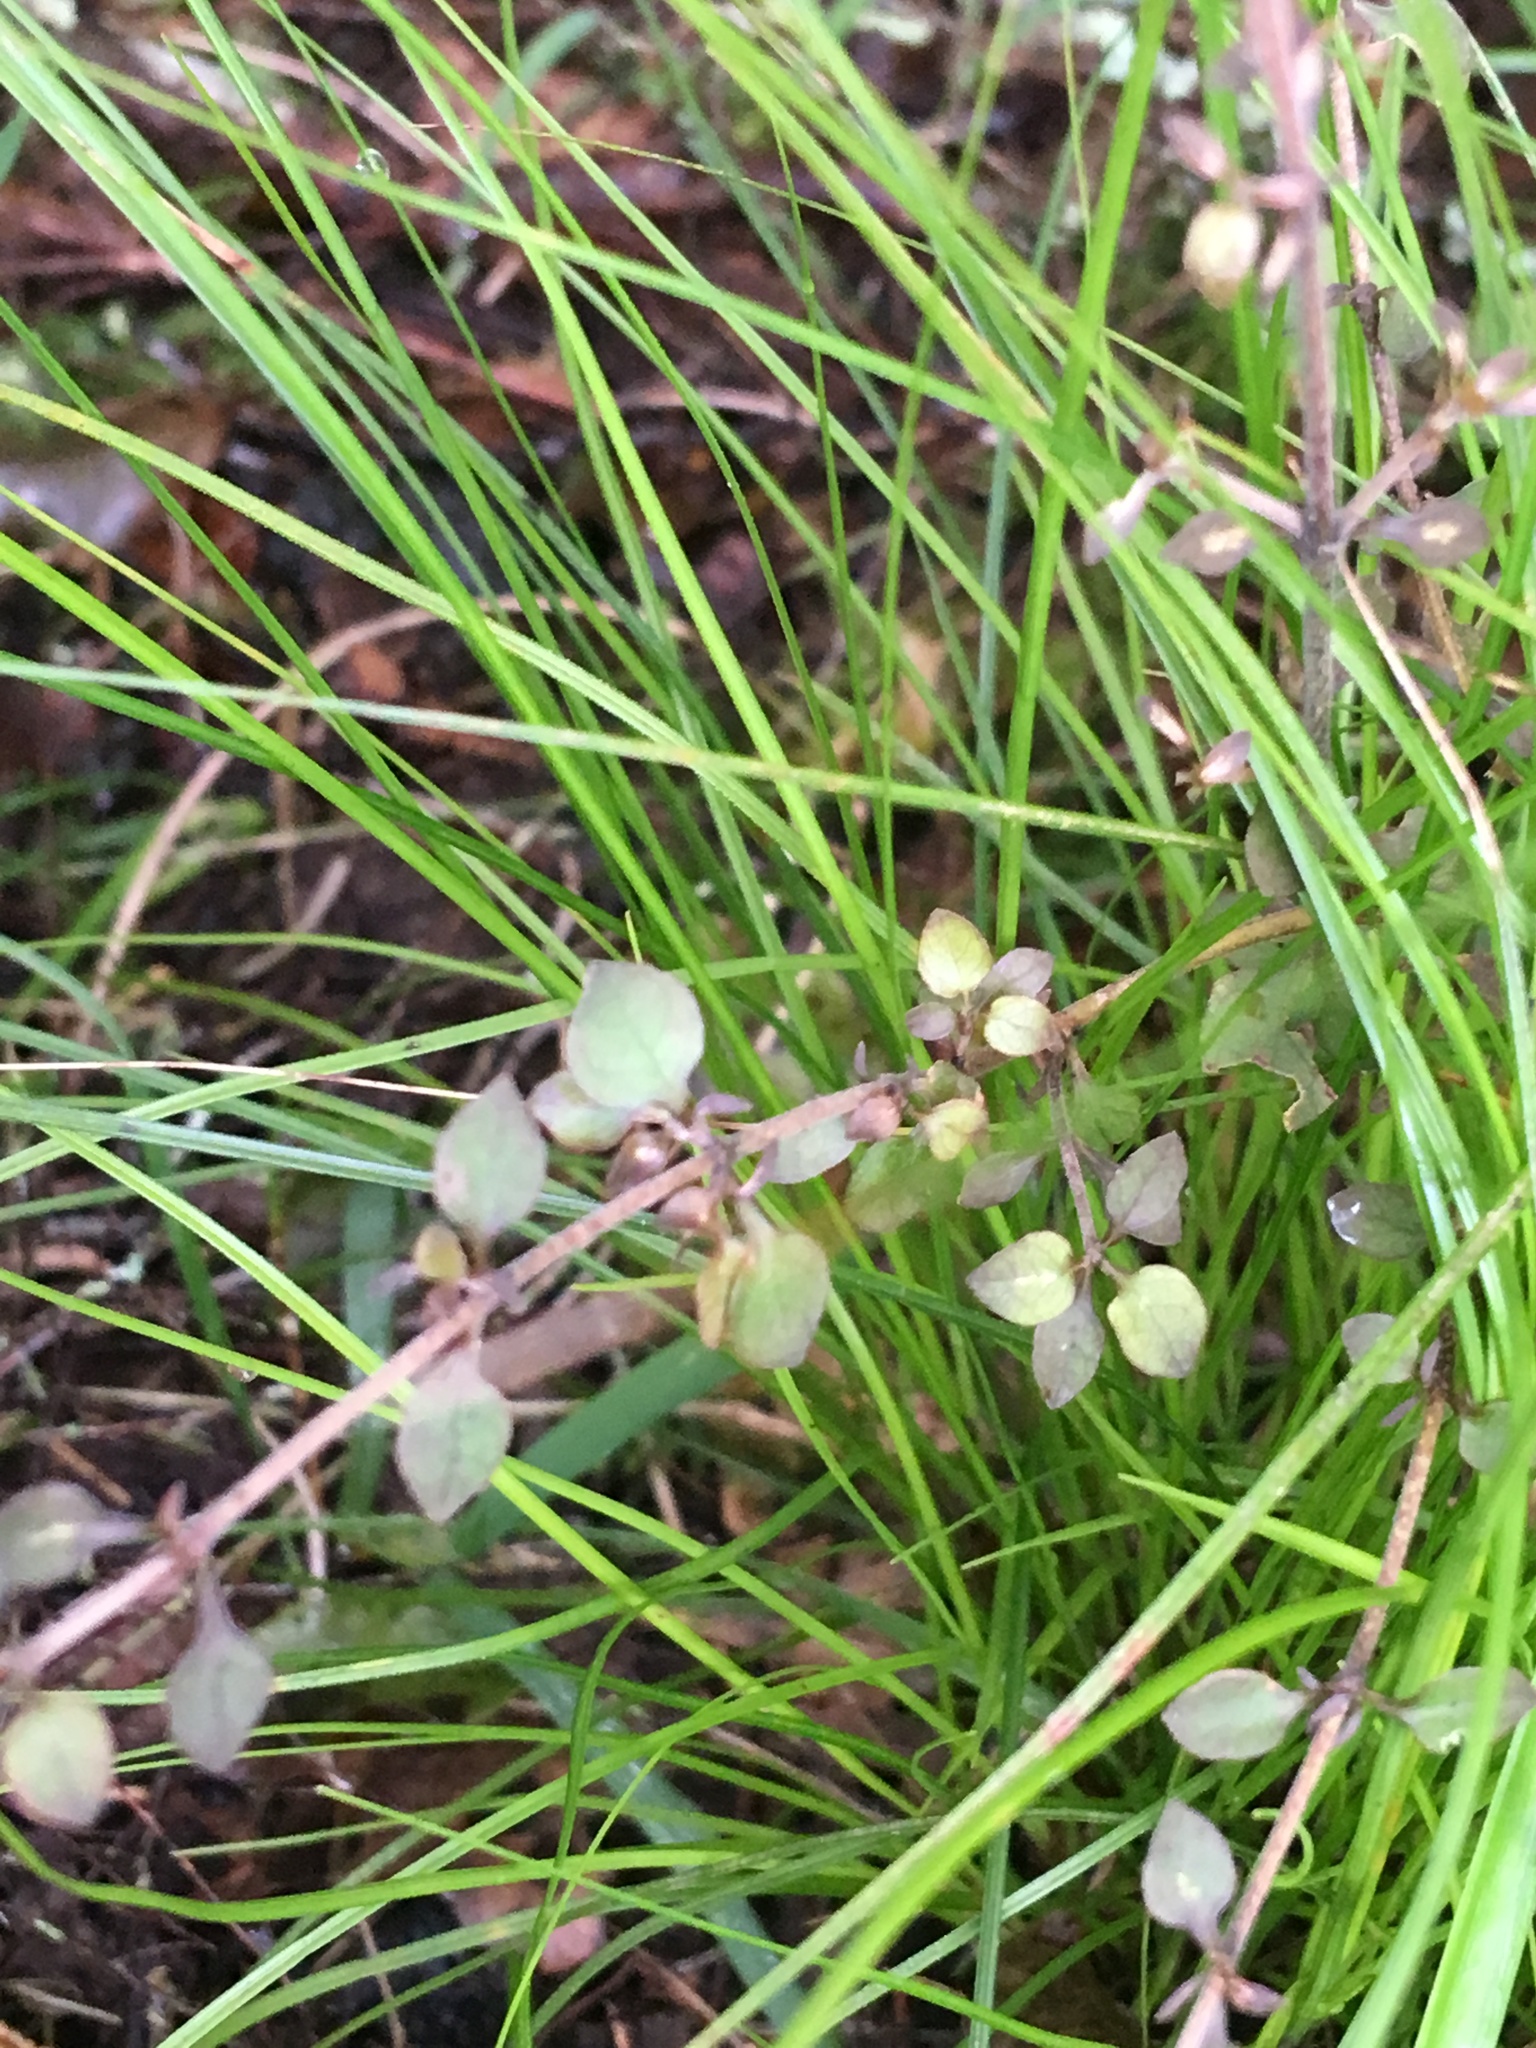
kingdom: Plantae
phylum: Tracheophyta
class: Magnoliopsida
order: Gentianales
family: Rubiaceae
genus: Coprosma
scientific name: Coprosma areolata
